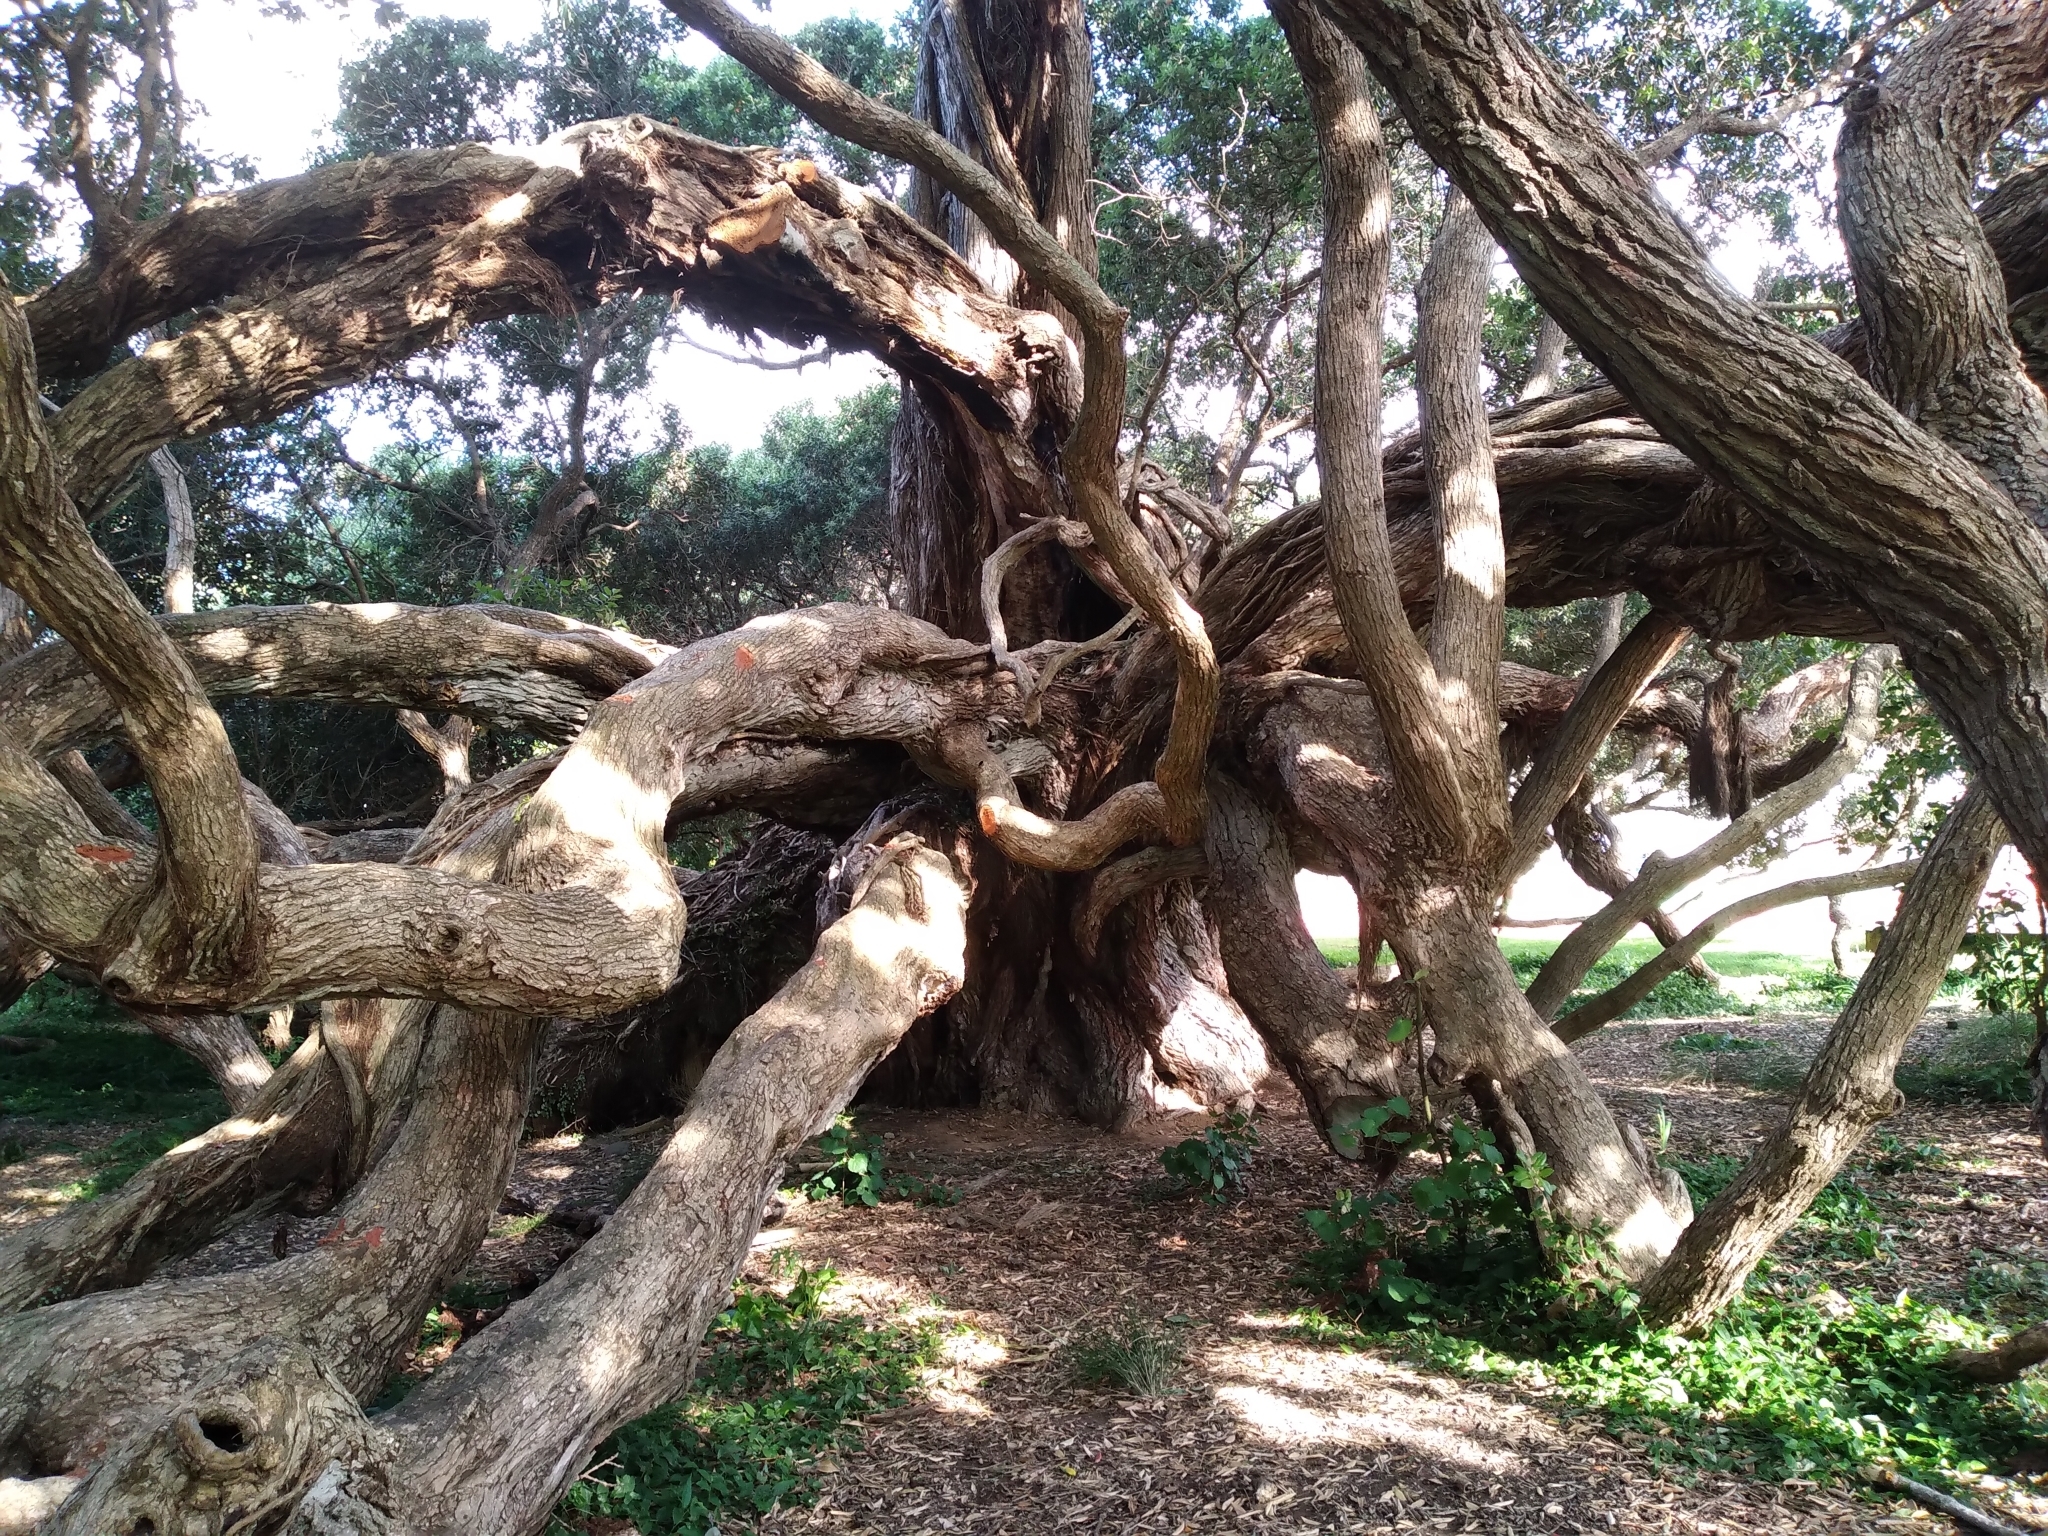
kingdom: Plantae
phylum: Tracheophyta
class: Magnoliopsida
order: Myrtales
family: Myrtaceae
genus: Metrosideros
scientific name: Metrosideros excelsa
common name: New zealand christmastree
